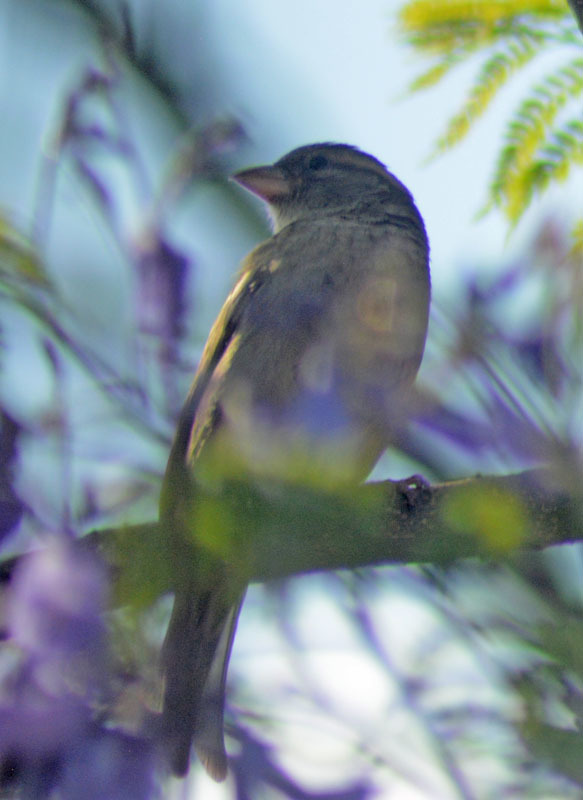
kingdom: Animalia
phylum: Chordata
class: Aves
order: Passeriformes
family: Passeridae
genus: Passer
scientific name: Passer domesticus
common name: House sparrow
